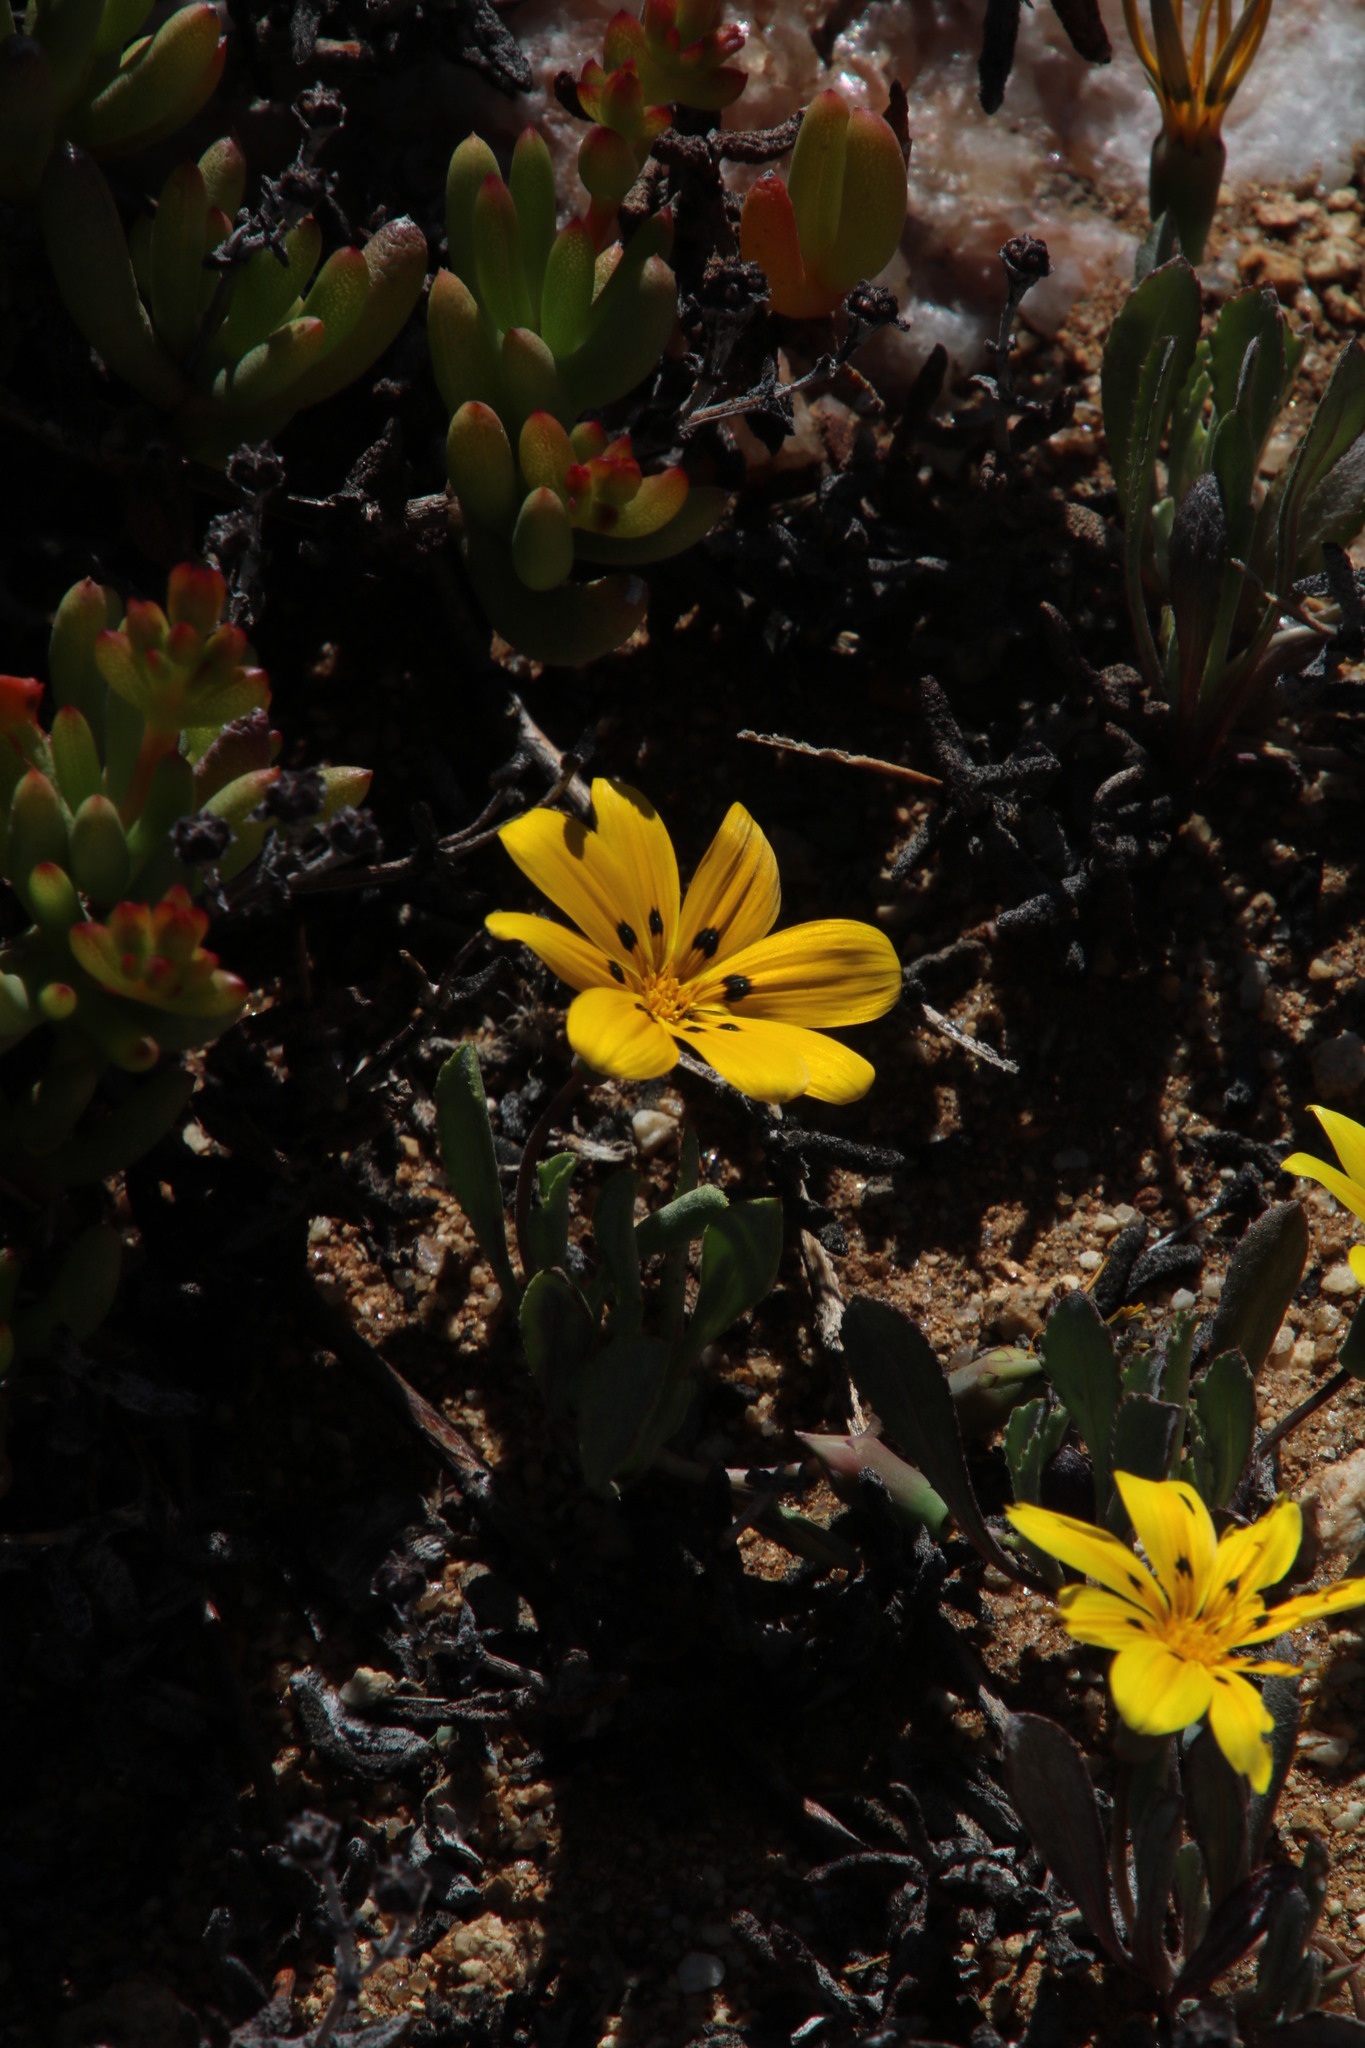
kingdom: Plantae
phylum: Tracheophyta
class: Magnoliopsida
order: Asterales
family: Asteraceae
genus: Gazania
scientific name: Gazania lichtensteinii
